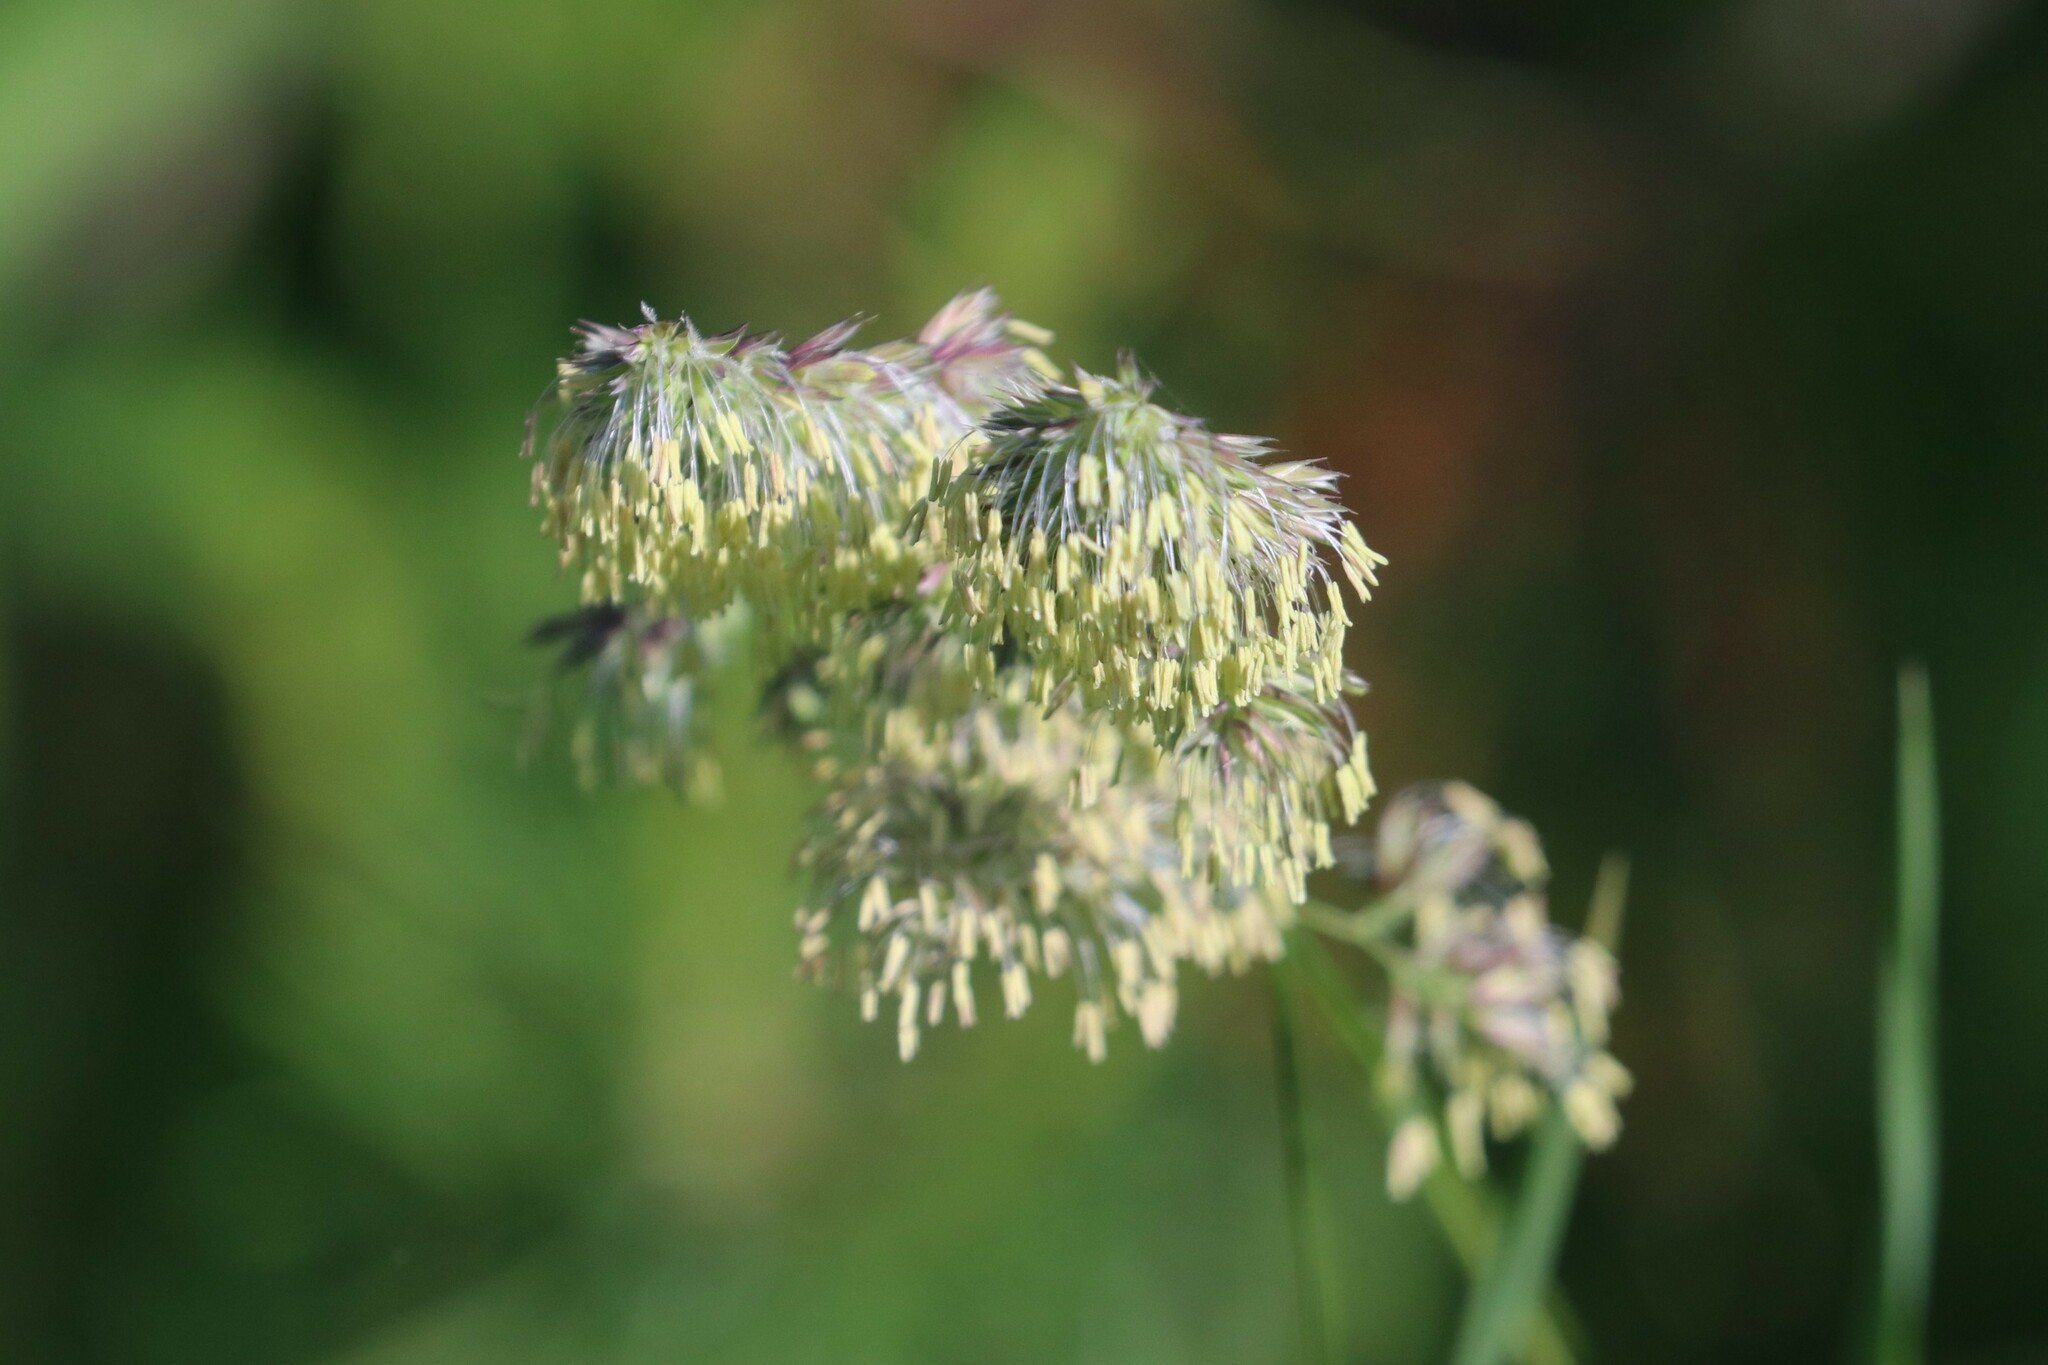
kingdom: Plantae
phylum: Tracheophyta
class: Liliopsida
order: Poales
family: Poaceae
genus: Dactylis
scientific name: Dactylis glomerata
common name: Orchardgrass
